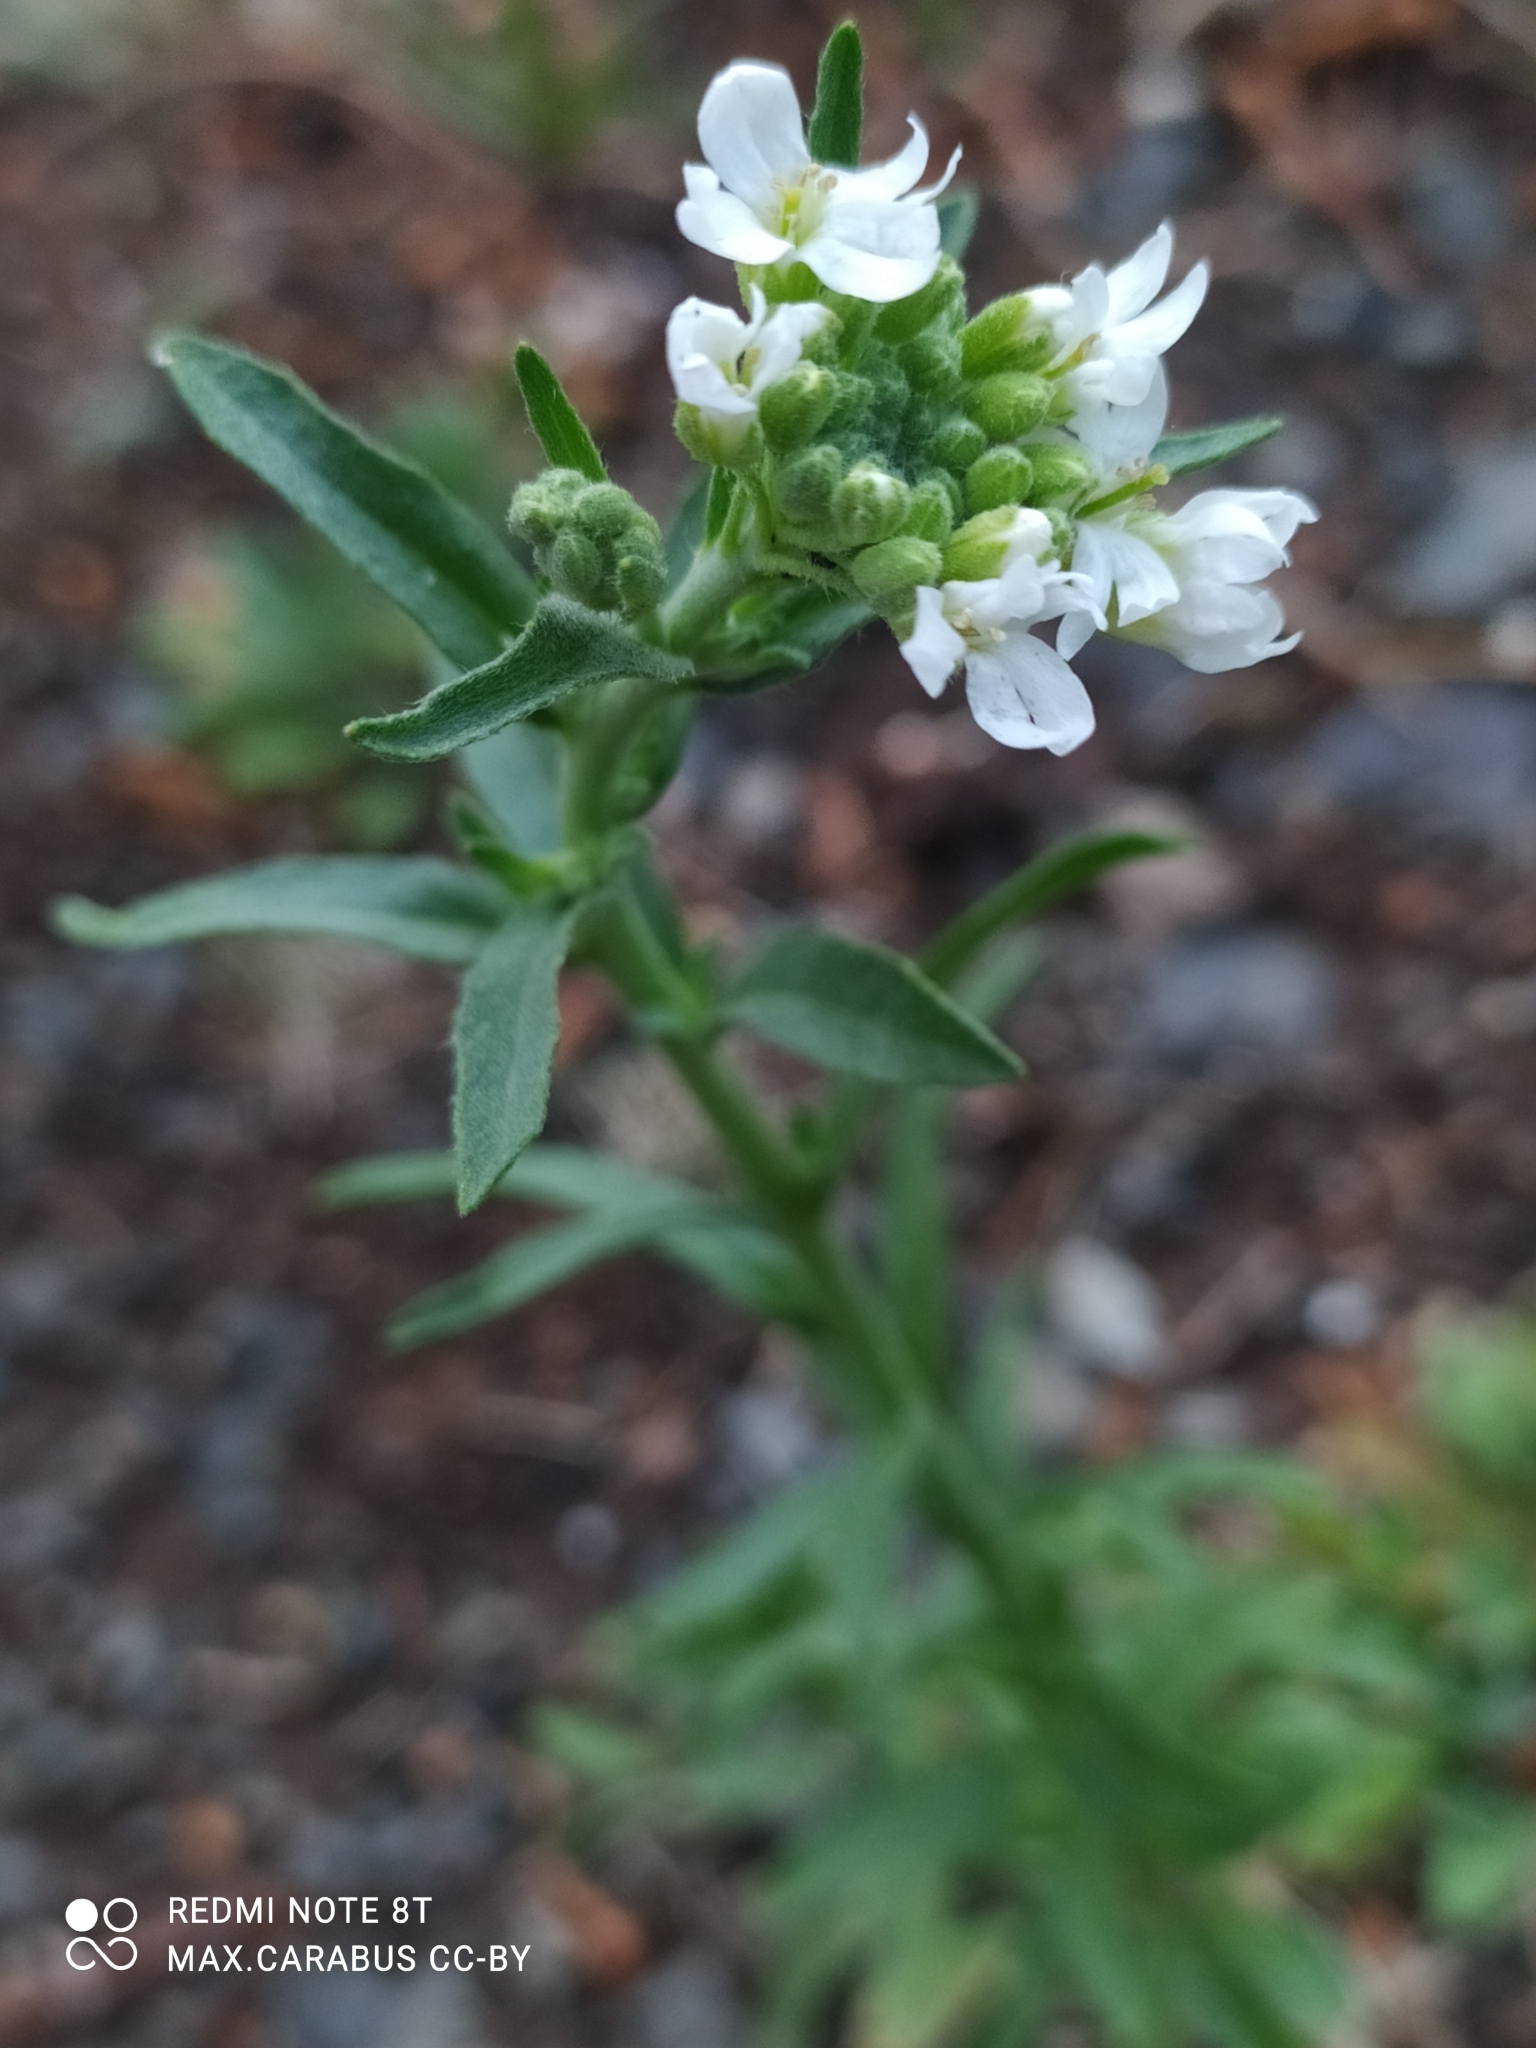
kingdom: Plantae
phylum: Tracheophyta
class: Magnoliopsida
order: Brassicales
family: Brassicaceae
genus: Berteroa
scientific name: Berteroa incana
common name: Hoary alison
